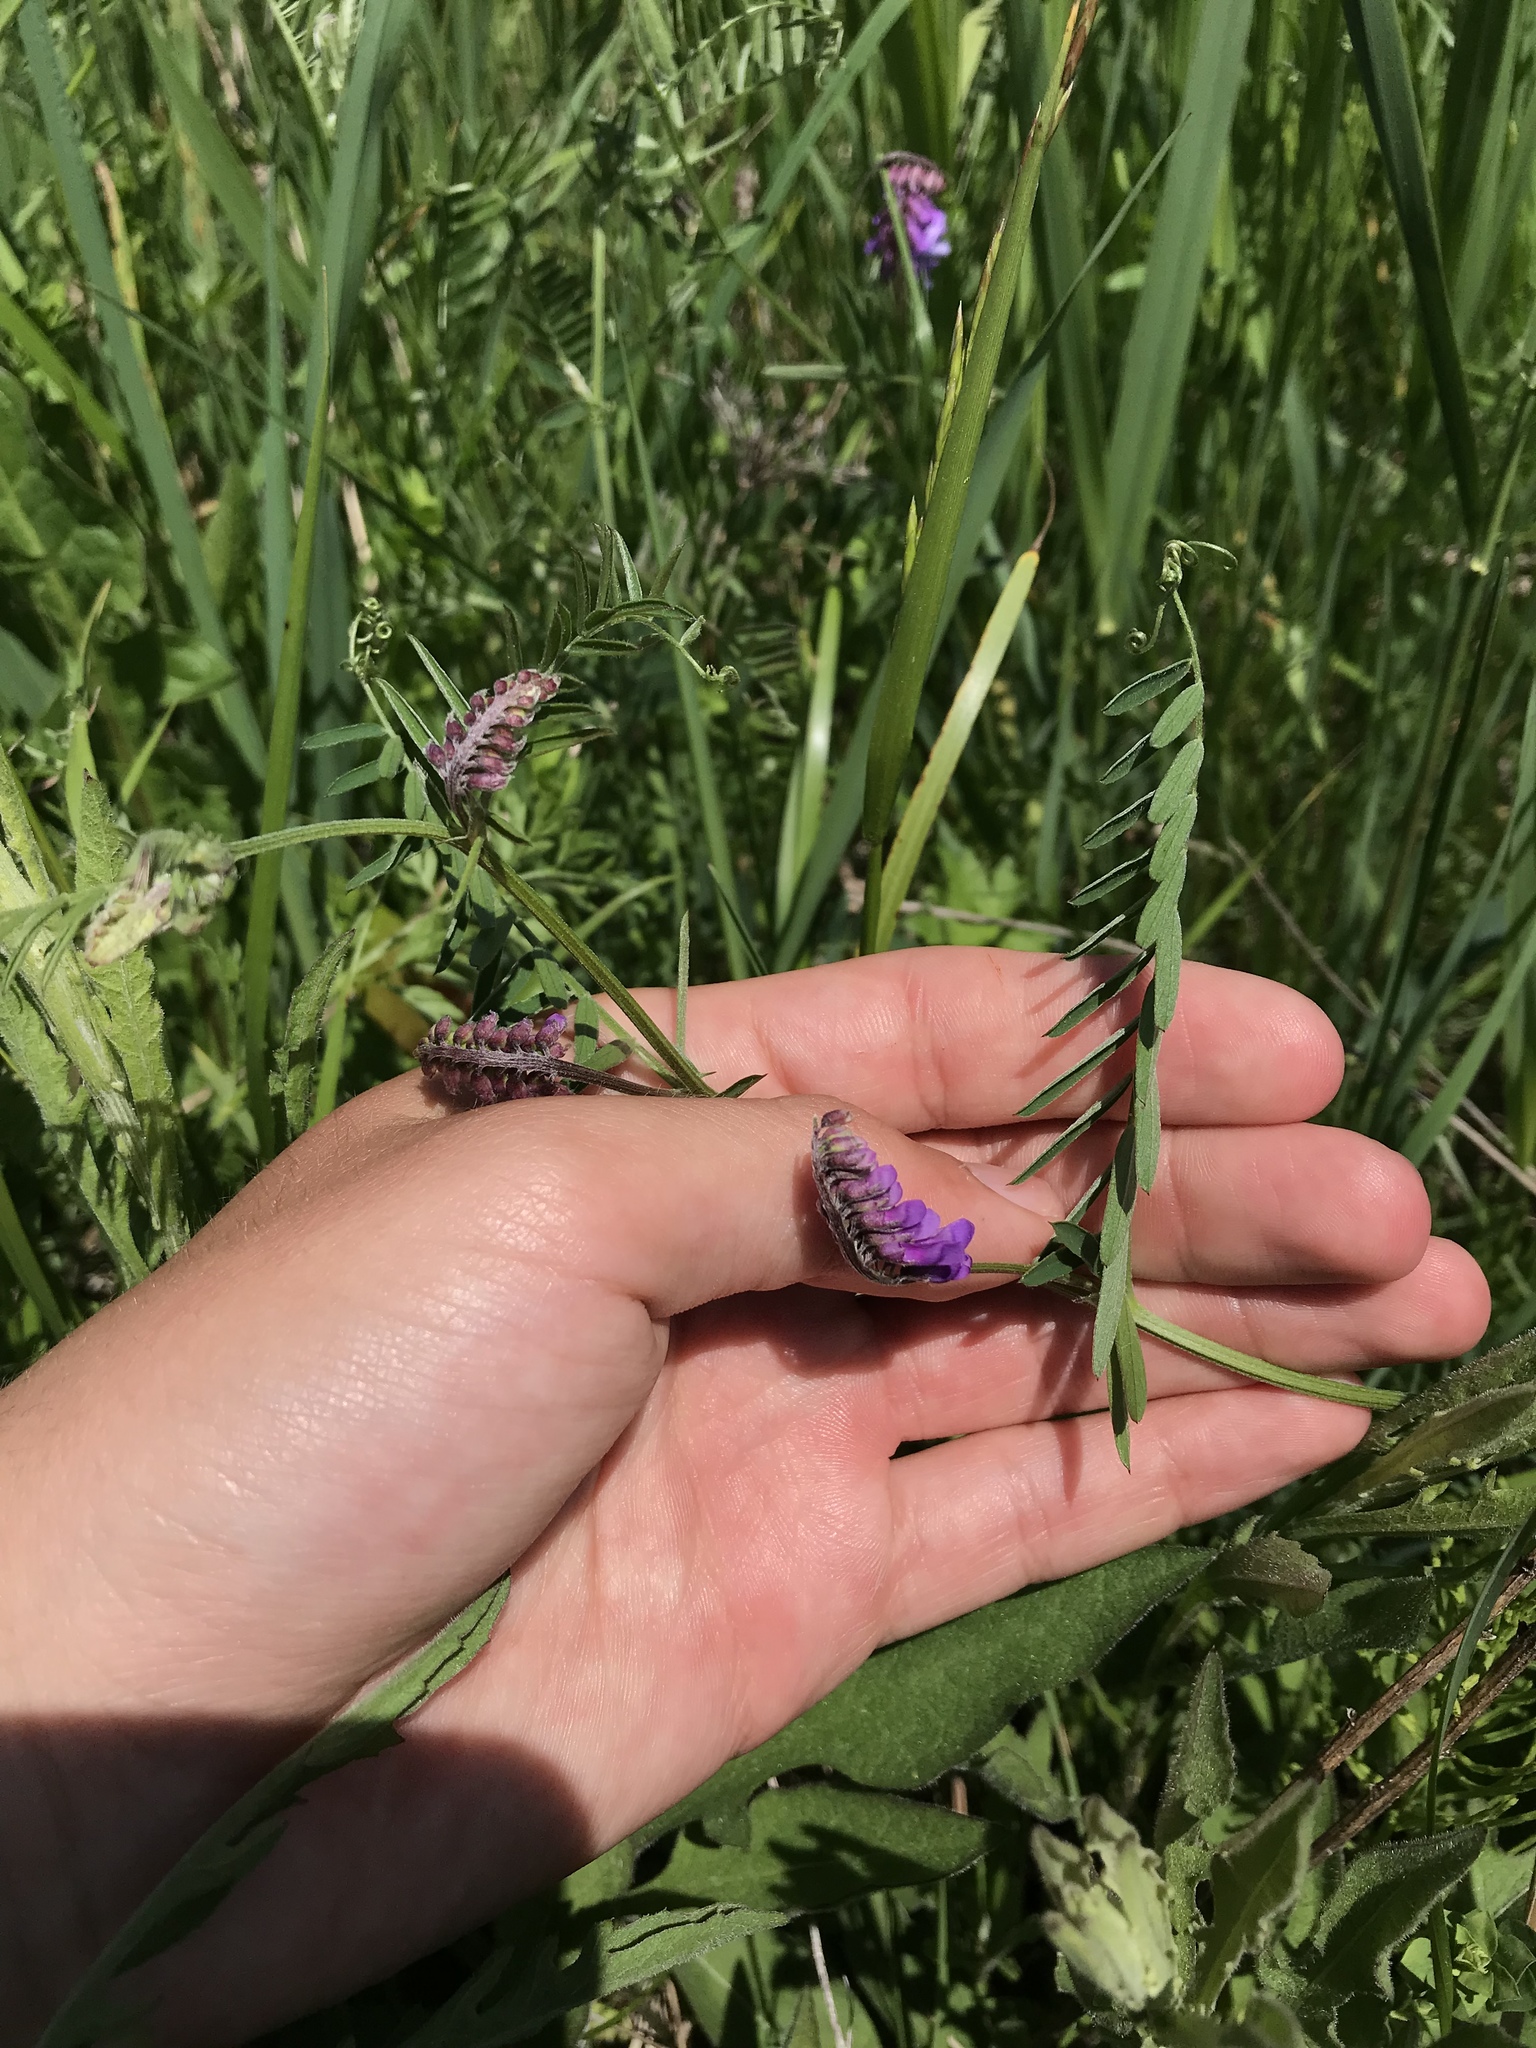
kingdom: Plantae
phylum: Tracheophyta
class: Magnoliopsida
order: Fabales
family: Fabaceae
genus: Vicia
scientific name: Vicia cracca
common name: Bird vetch
